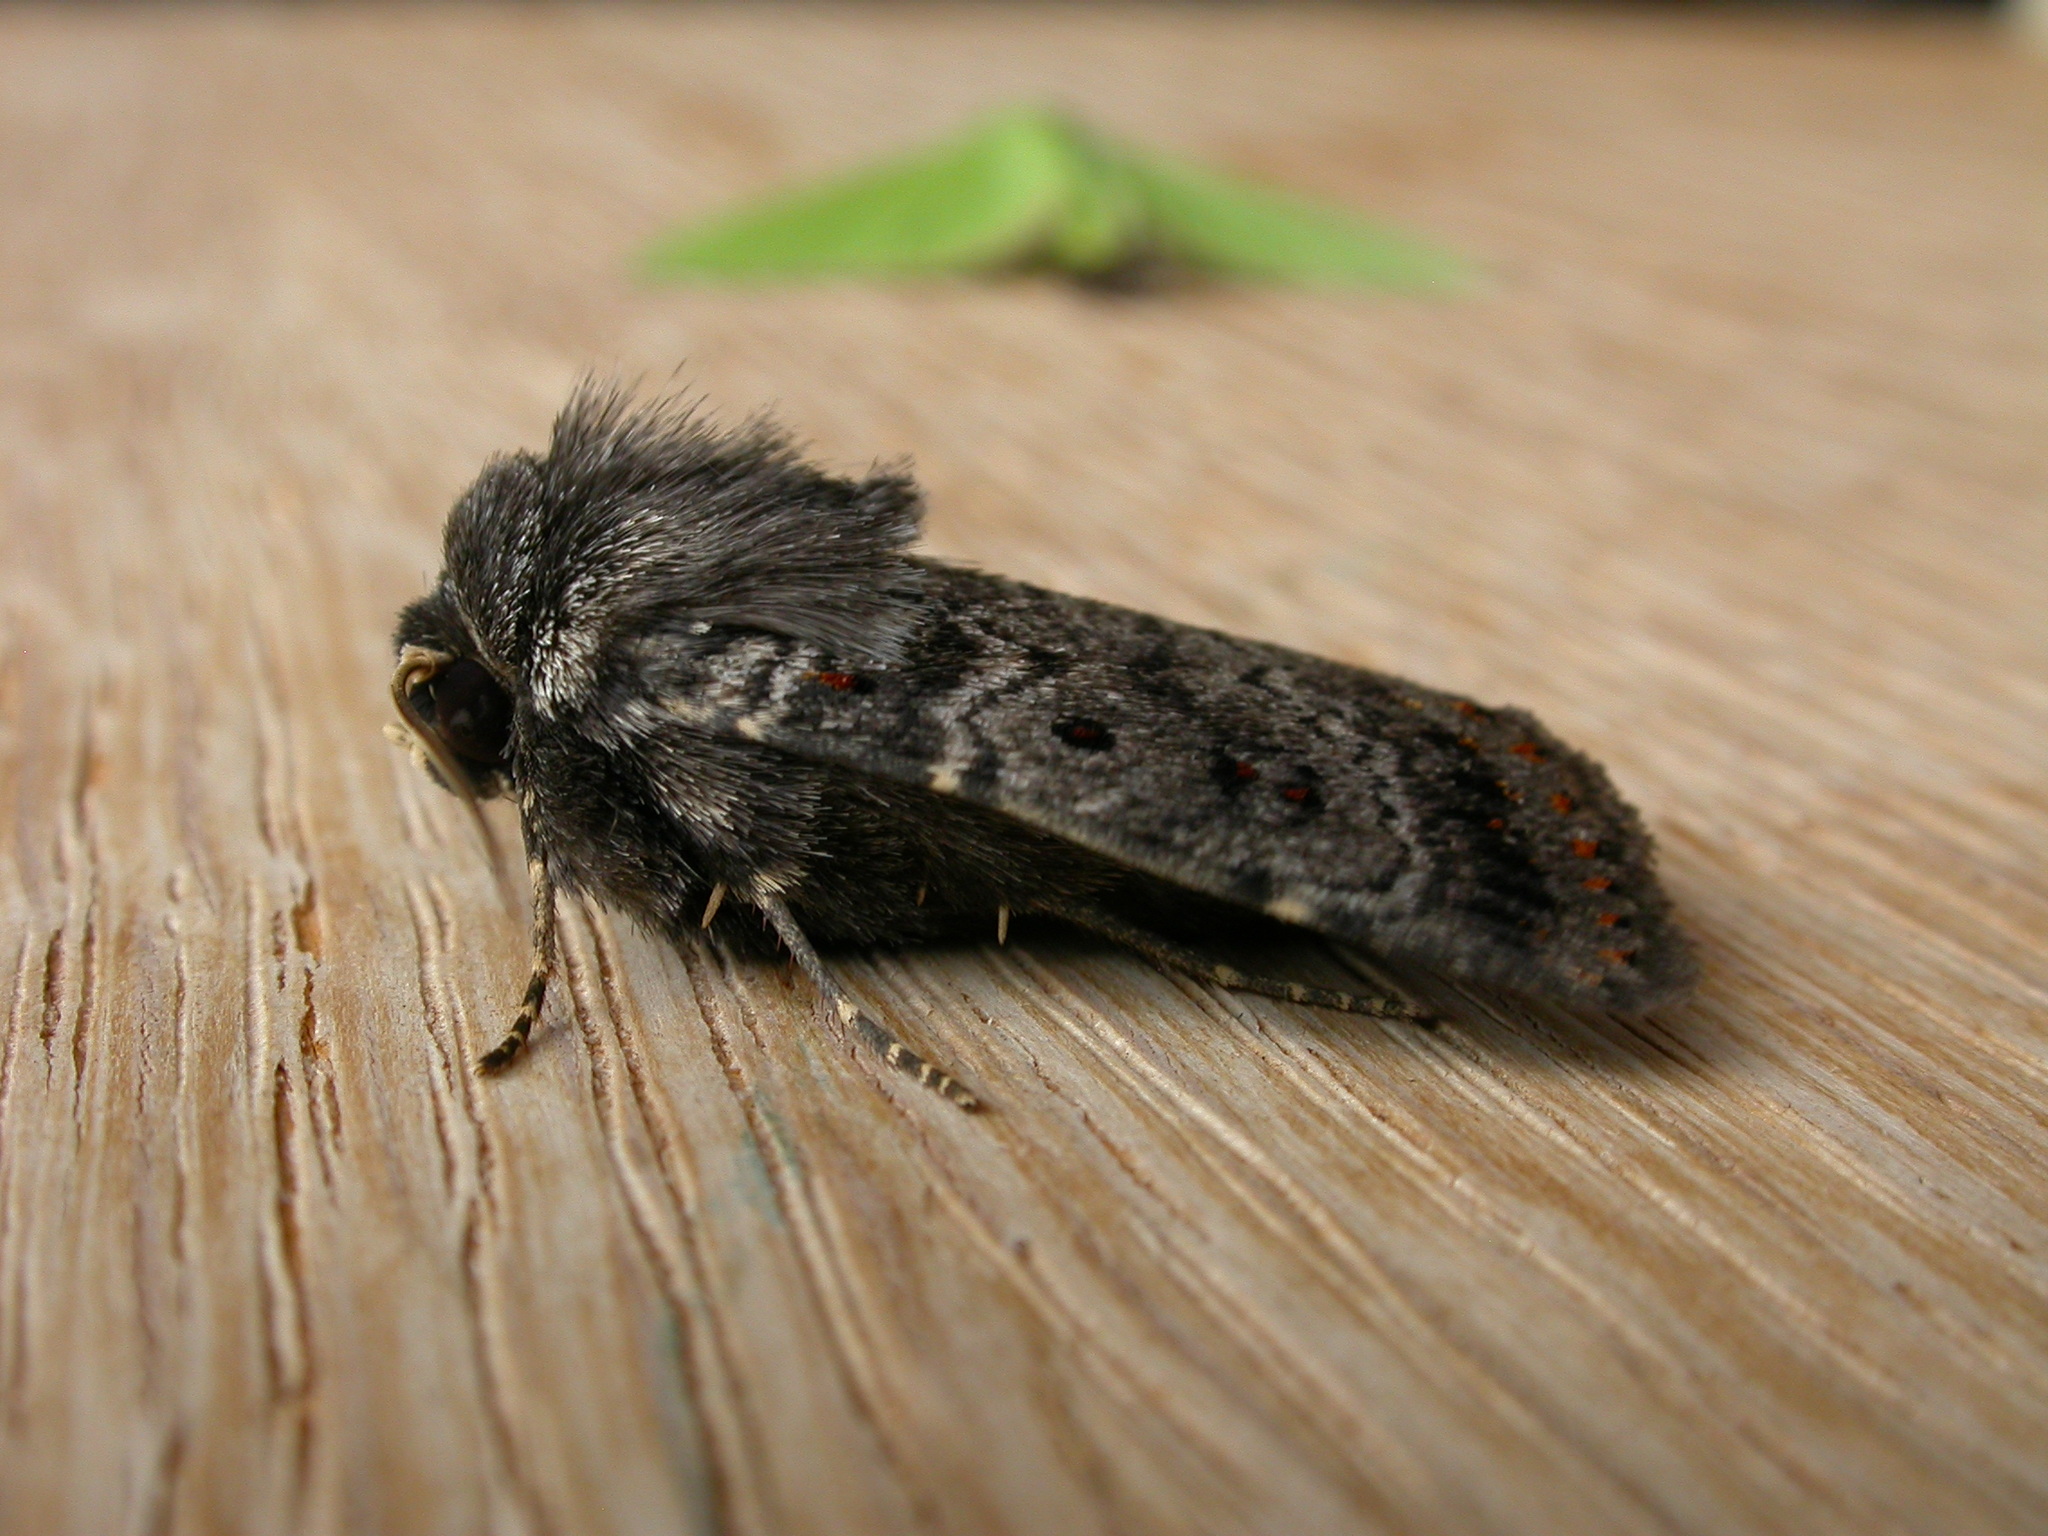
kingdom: Animalia
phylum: Arthropoda
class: Insecta
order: Lepidoptera
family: Noctuidae
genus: Proteuxoa
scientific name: Proteuxoa rubripuncta
